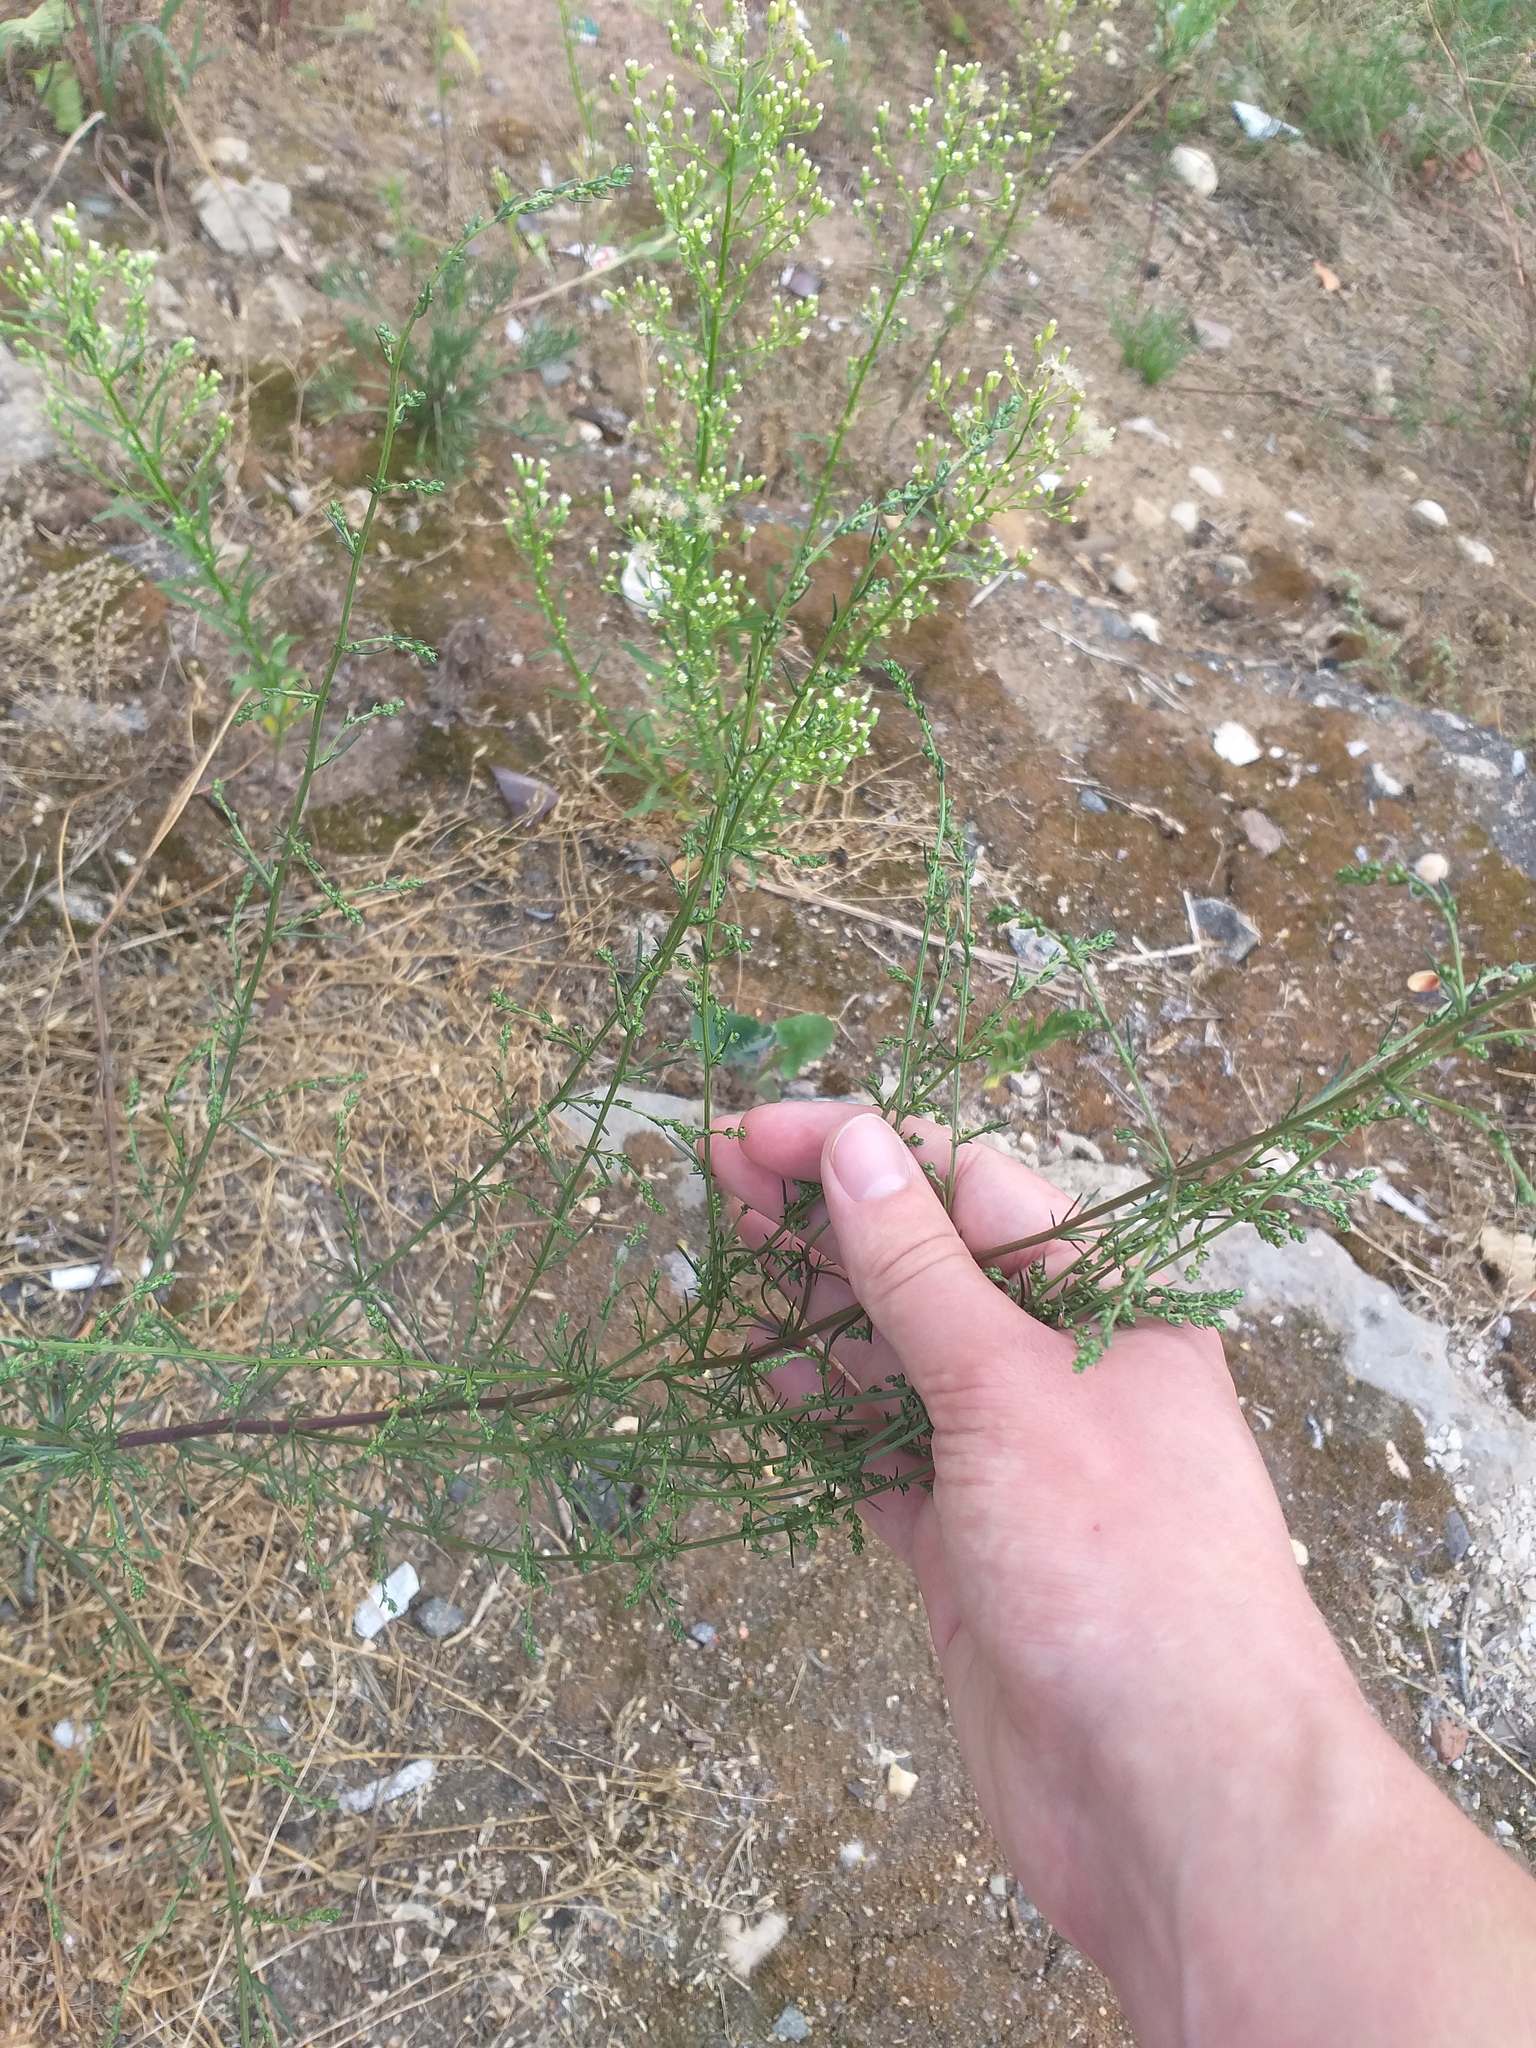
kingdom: Plantae
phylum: Tracheophyta
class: Magnoliopsida
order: Asterales
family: Asteraceae
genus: Artemisia
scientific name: Artemisia campestris
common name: Field wormwood
